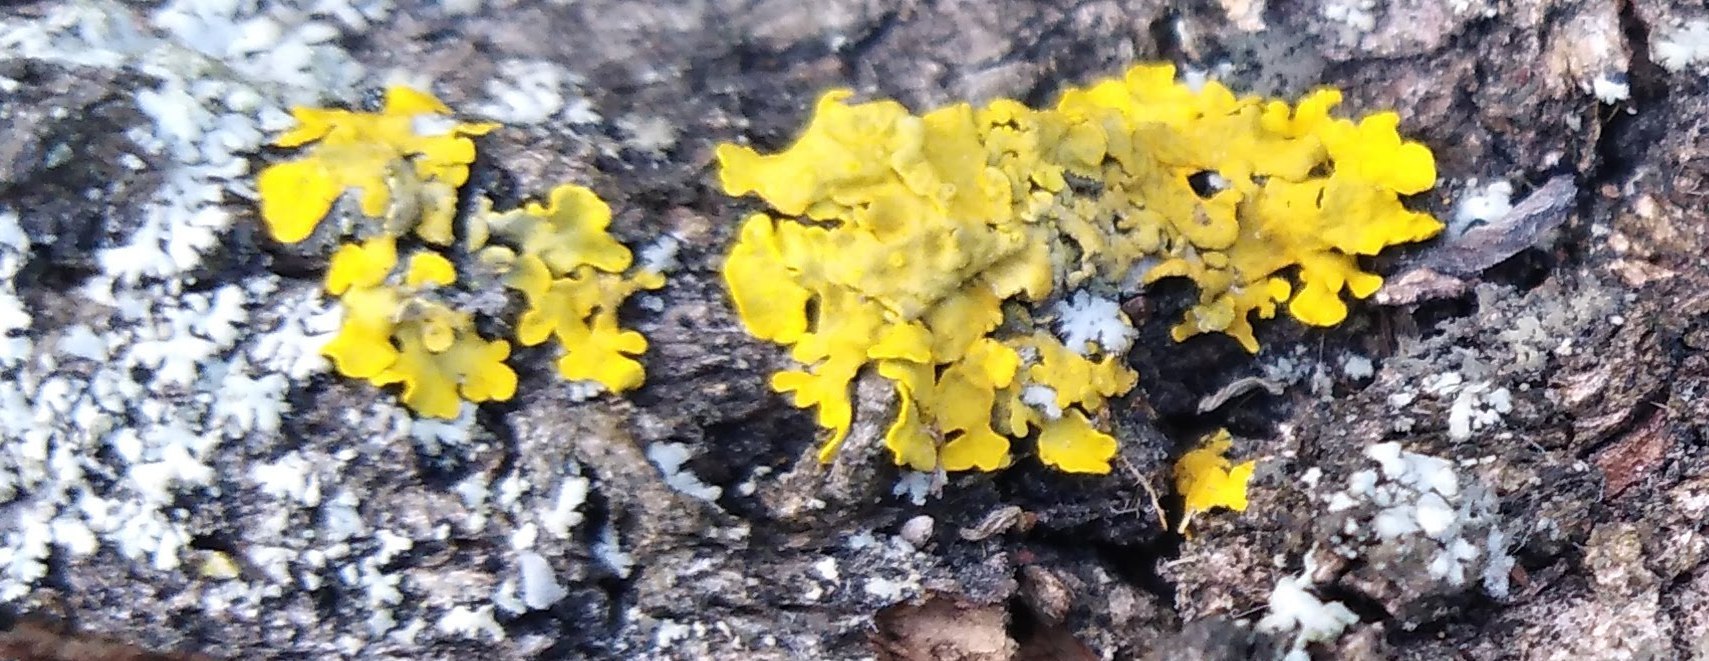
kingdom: Fungi
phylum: Ascomycota
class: Lecanoromycetes
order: Teloschistales
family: Teloschistaceae
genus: Xanthoria
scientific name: Xanthoria parietina
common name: Common orange lichen
